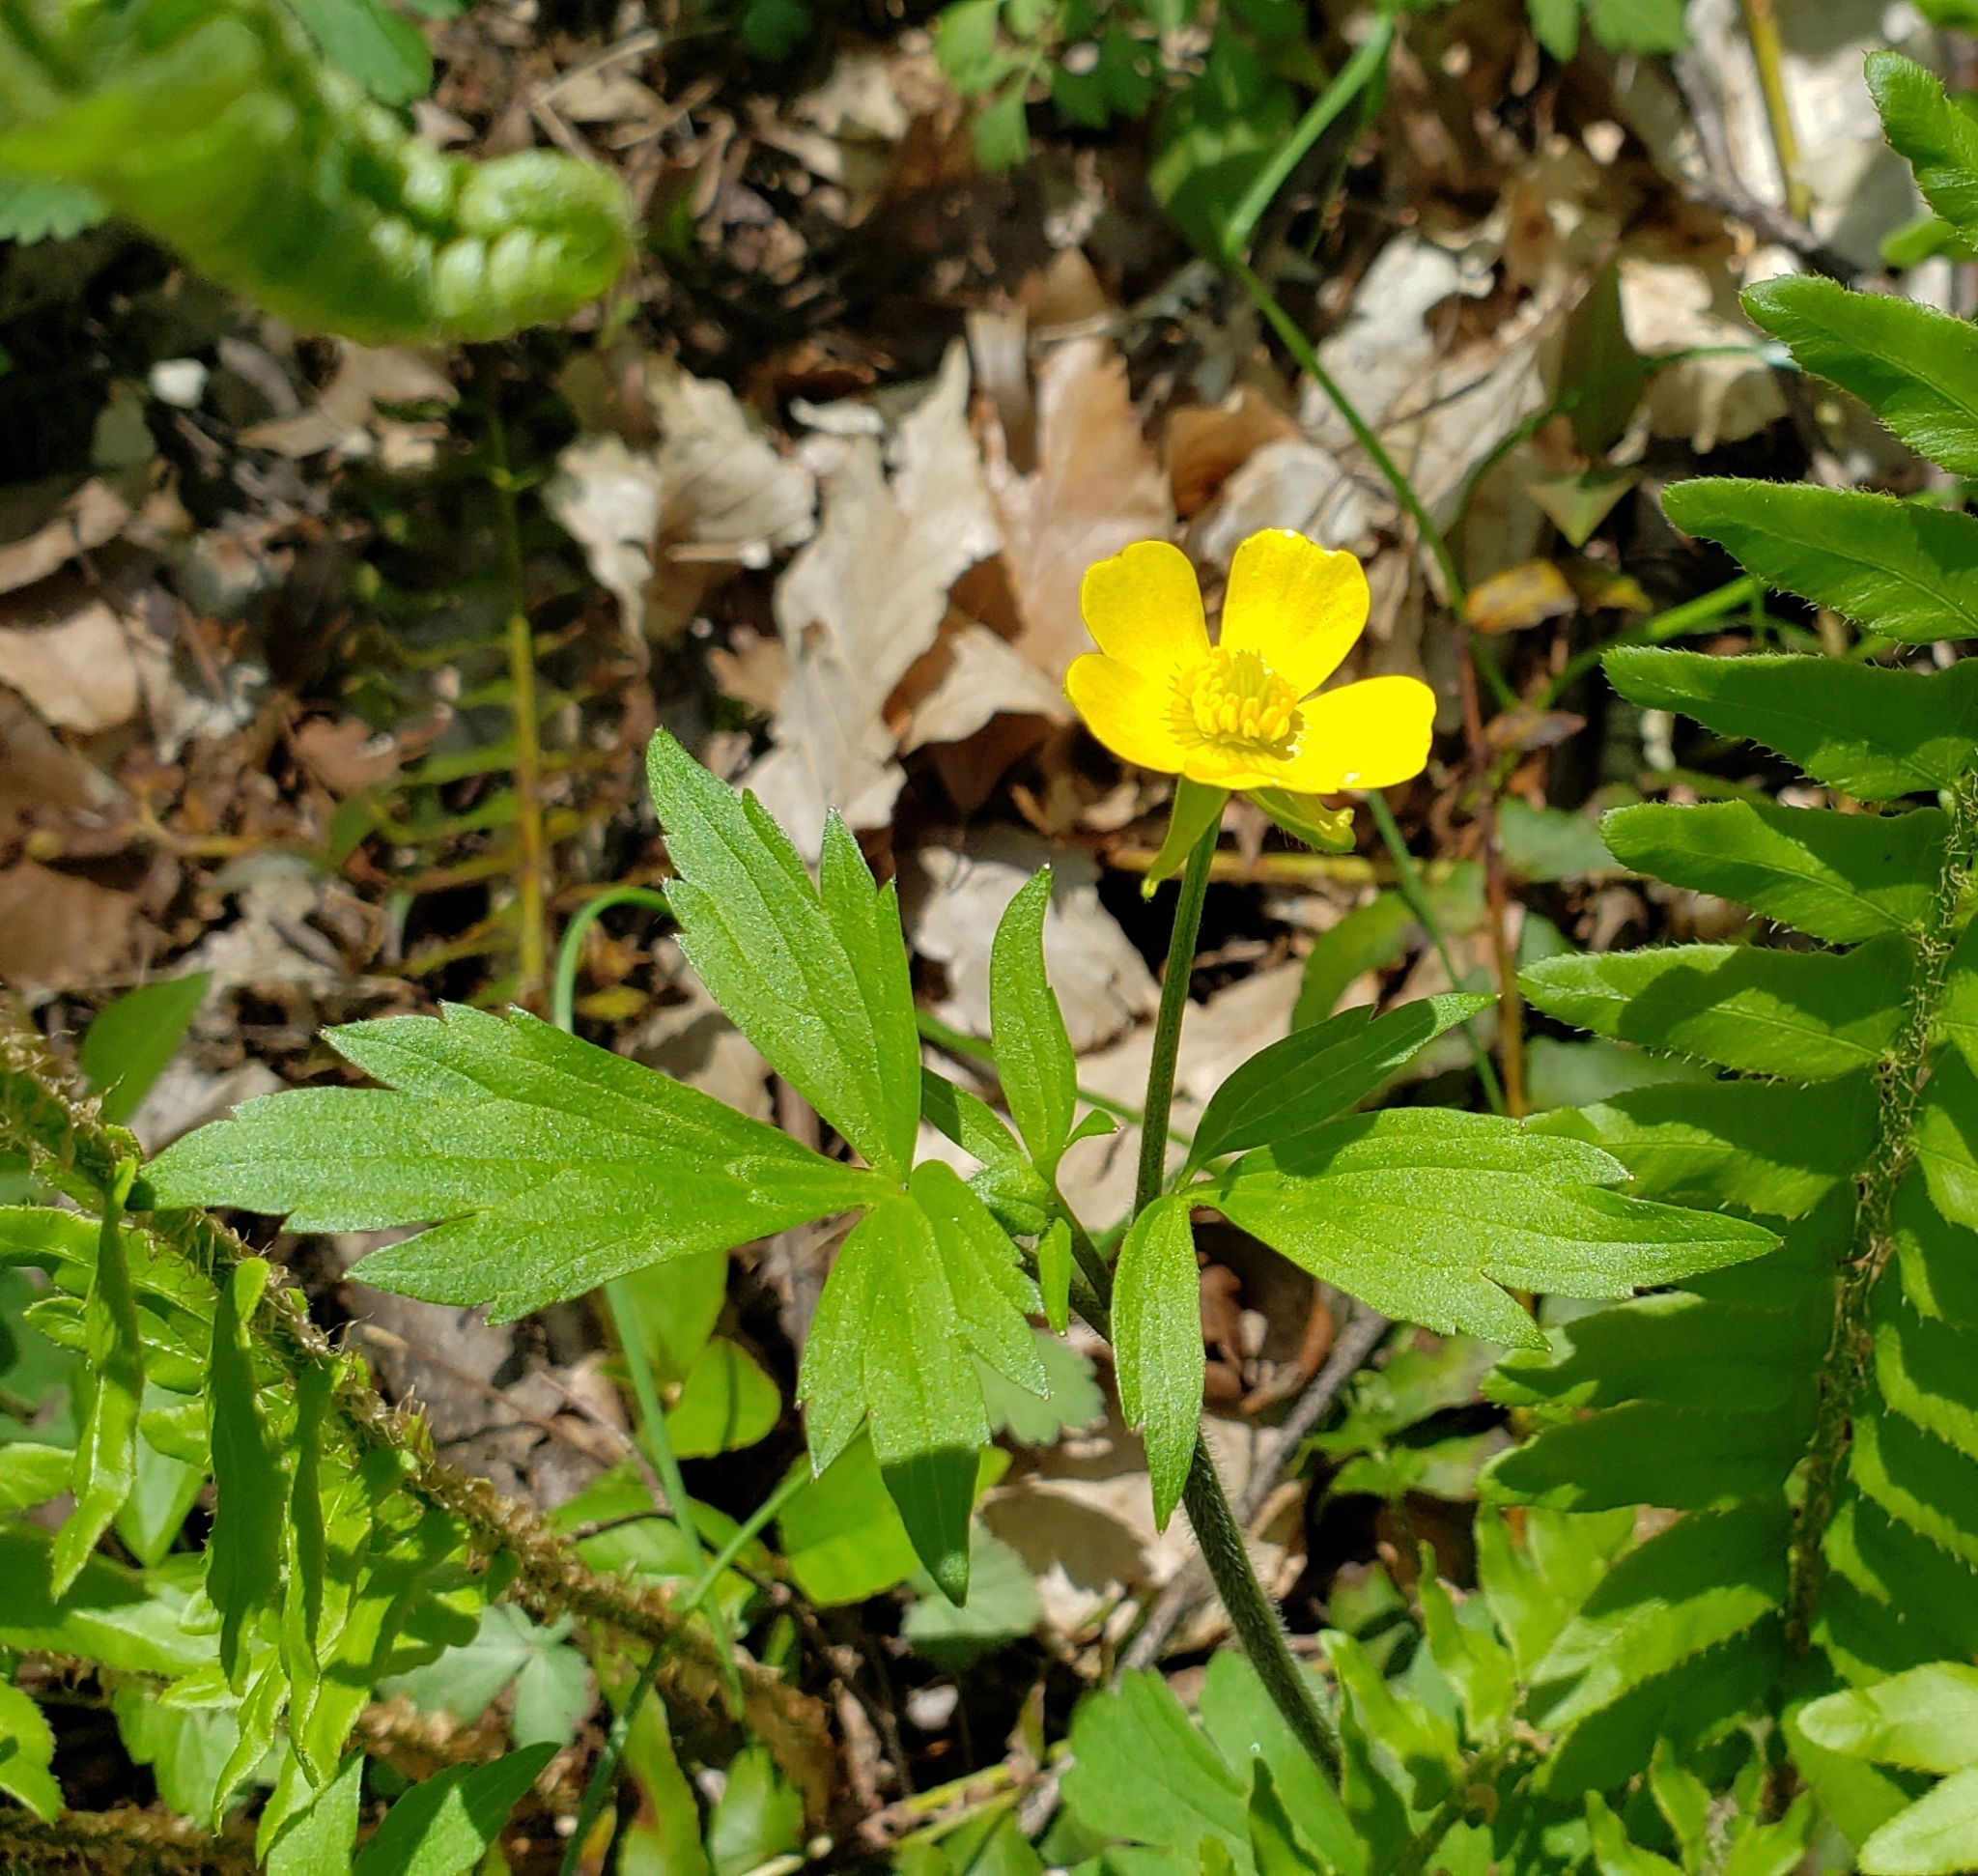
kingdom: Plantae
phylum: Tracheophyta
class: Magnoliopsida
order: Ranunculales
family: Ranunculaceae
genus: Ranunculus
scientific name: Ranunculus hispidus
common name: Bristly buttercup
